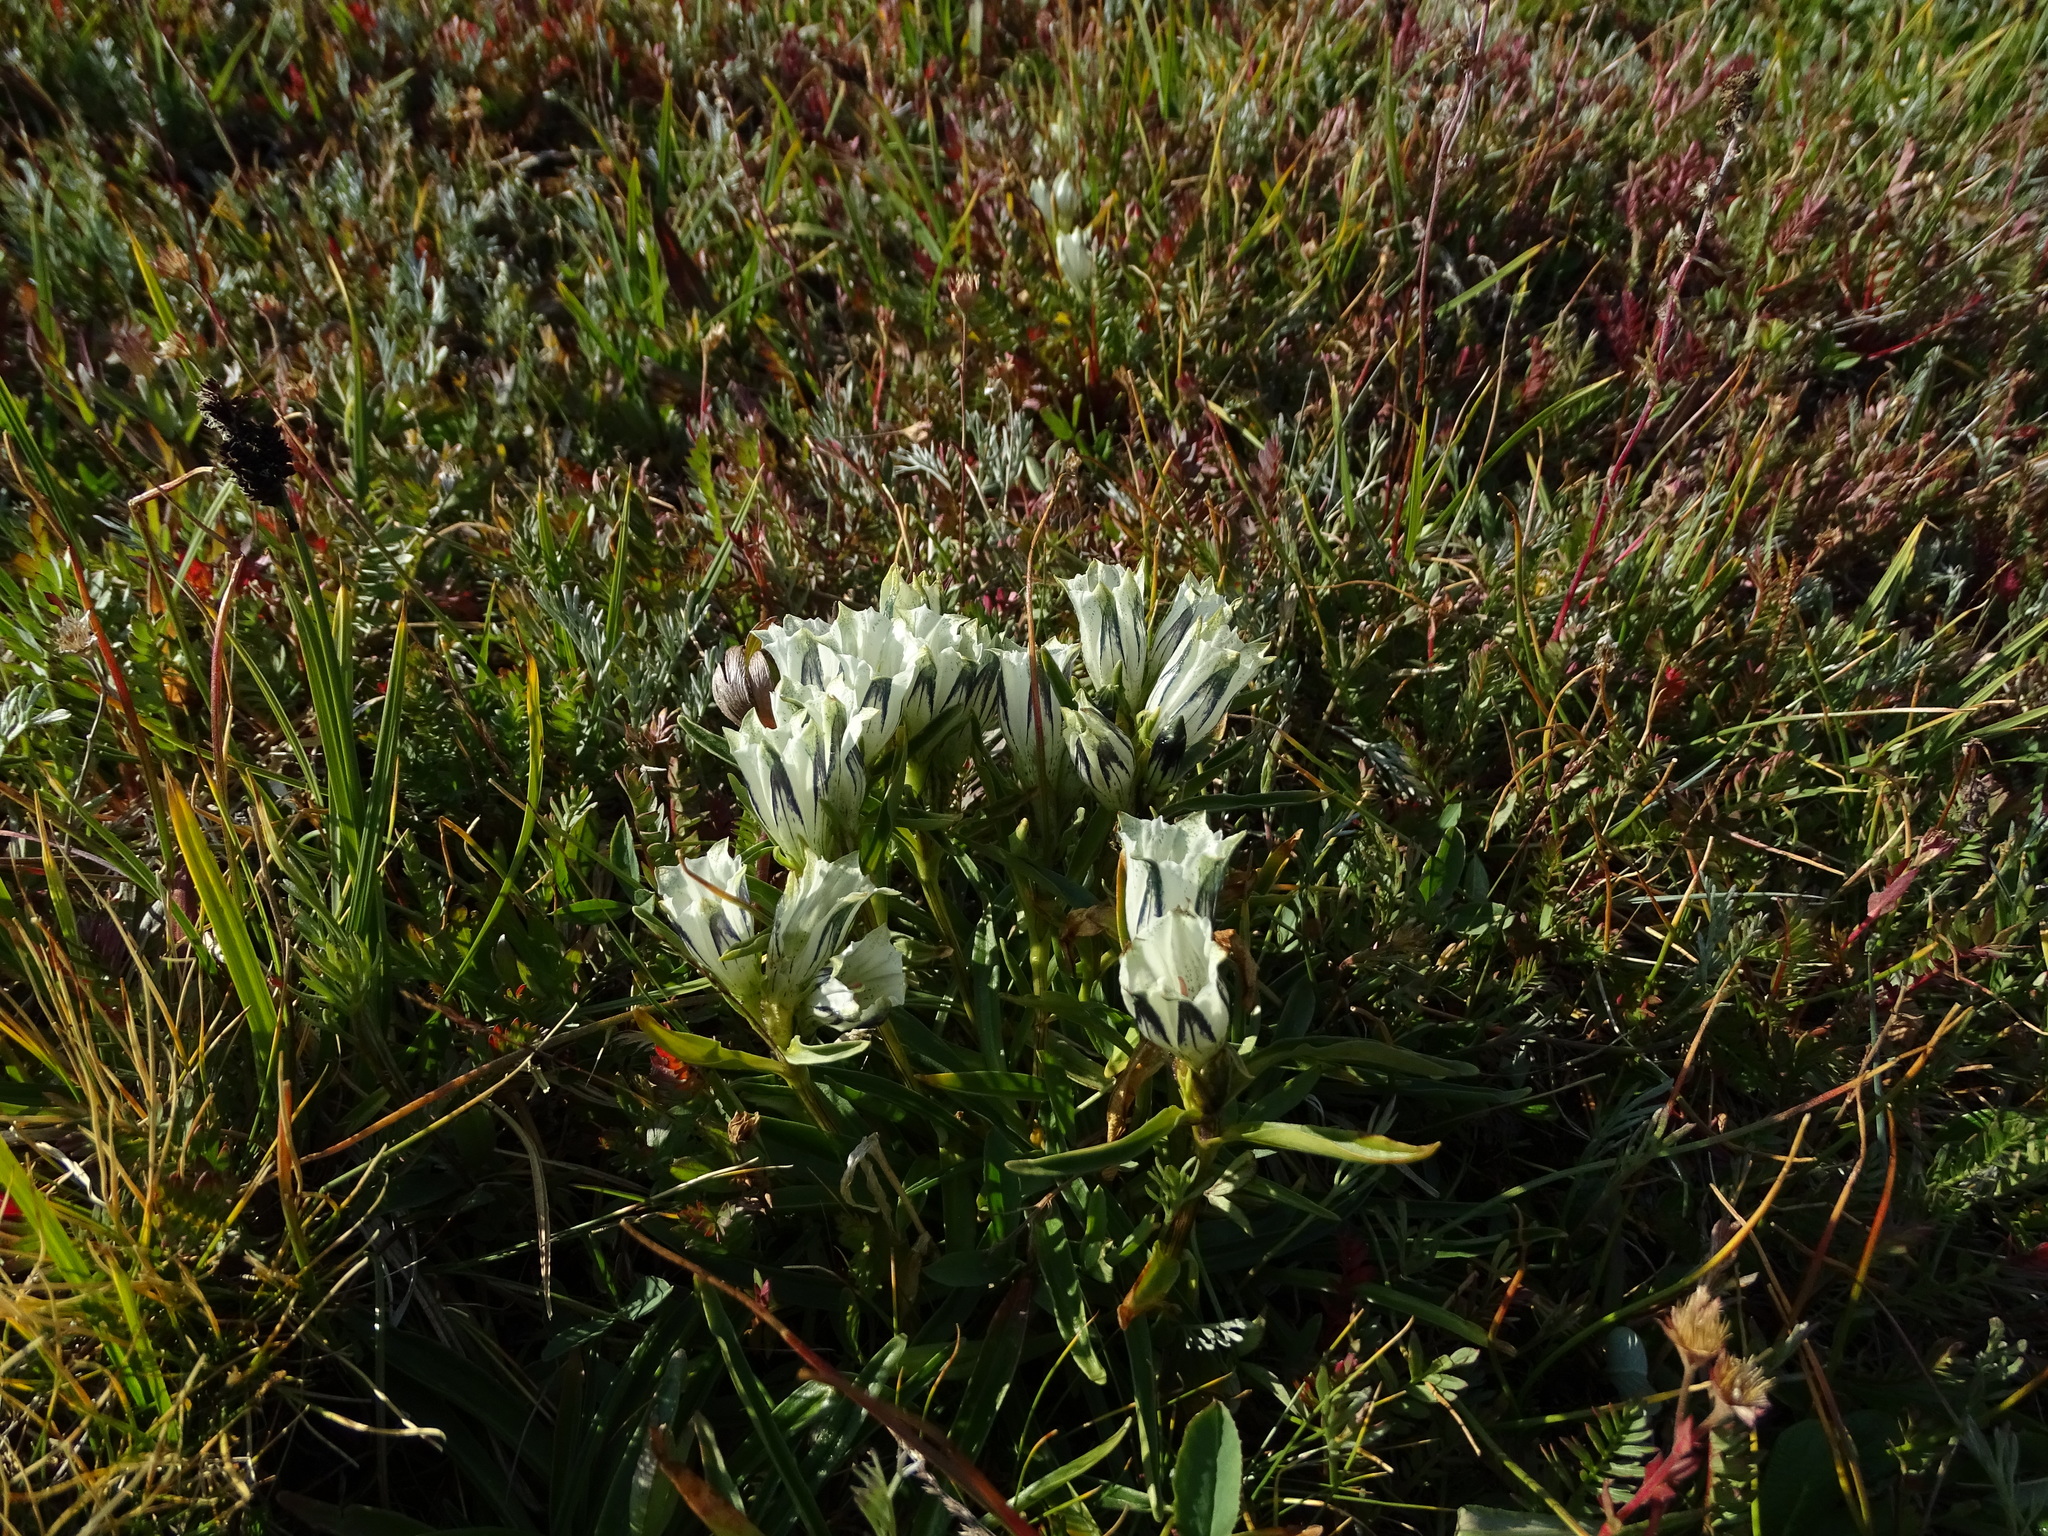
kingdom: Plantae
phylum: Tracheophyta
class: Magnoliopsida
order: Gentianales
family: Gentianaceae
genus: Gentiana
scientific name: Gentiana algida
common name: Arctic gentian
